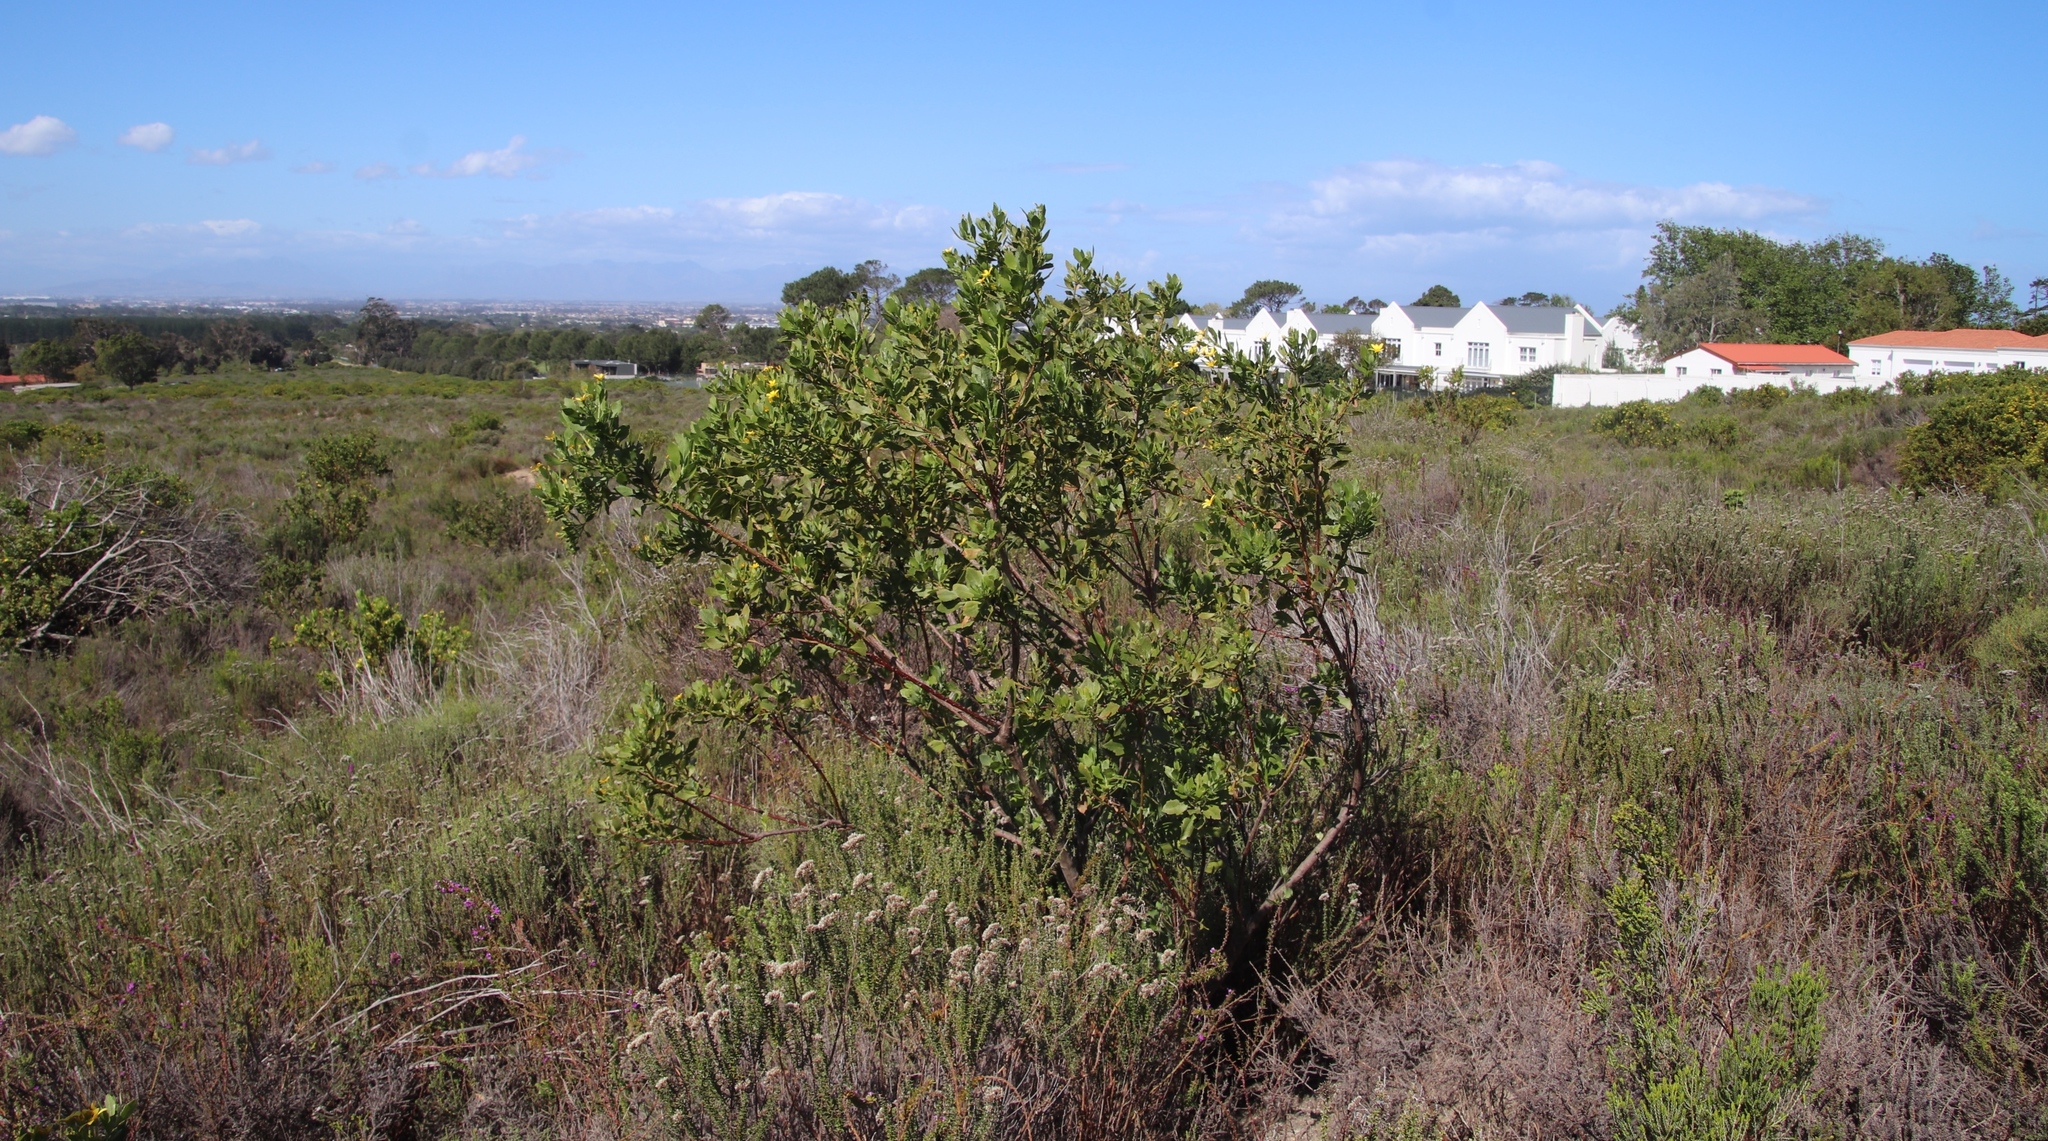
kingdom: Plantae
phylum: Tracheophyta
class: Magnoliopsida
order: Asterales
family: Asteraceae
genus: Osteospermum
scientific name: Osteospermum moniliferum
